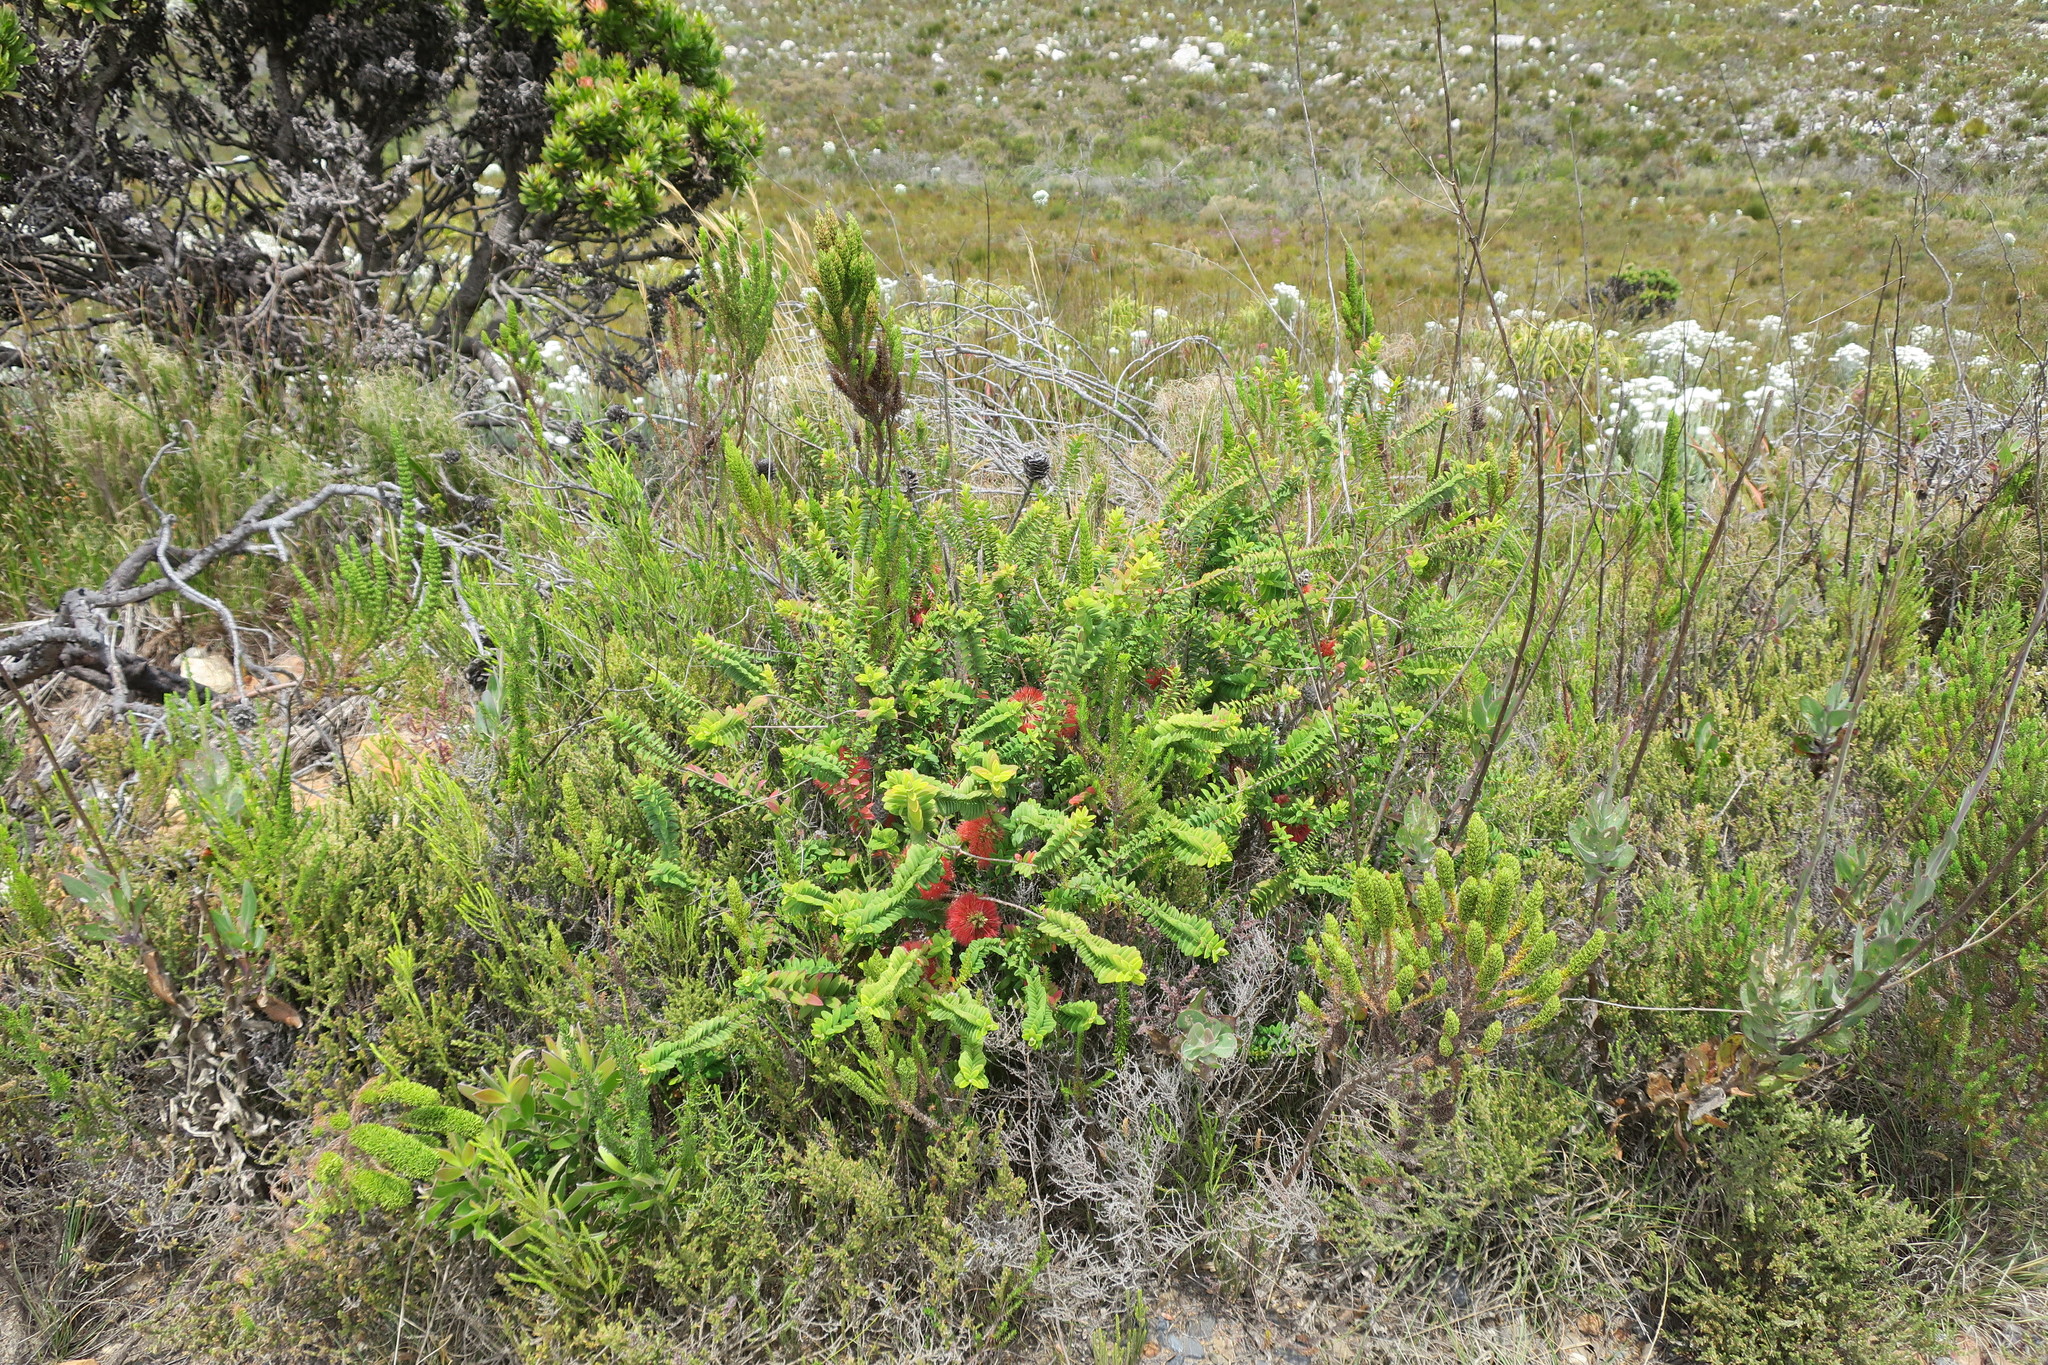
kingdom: Plantae
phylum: Tracheophyta
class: Magnoliopsida
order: Myrtales
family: Myrtaceae
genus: Melaleuca
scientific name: Melaleuca hypericifolia
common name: Red honey myrtle
